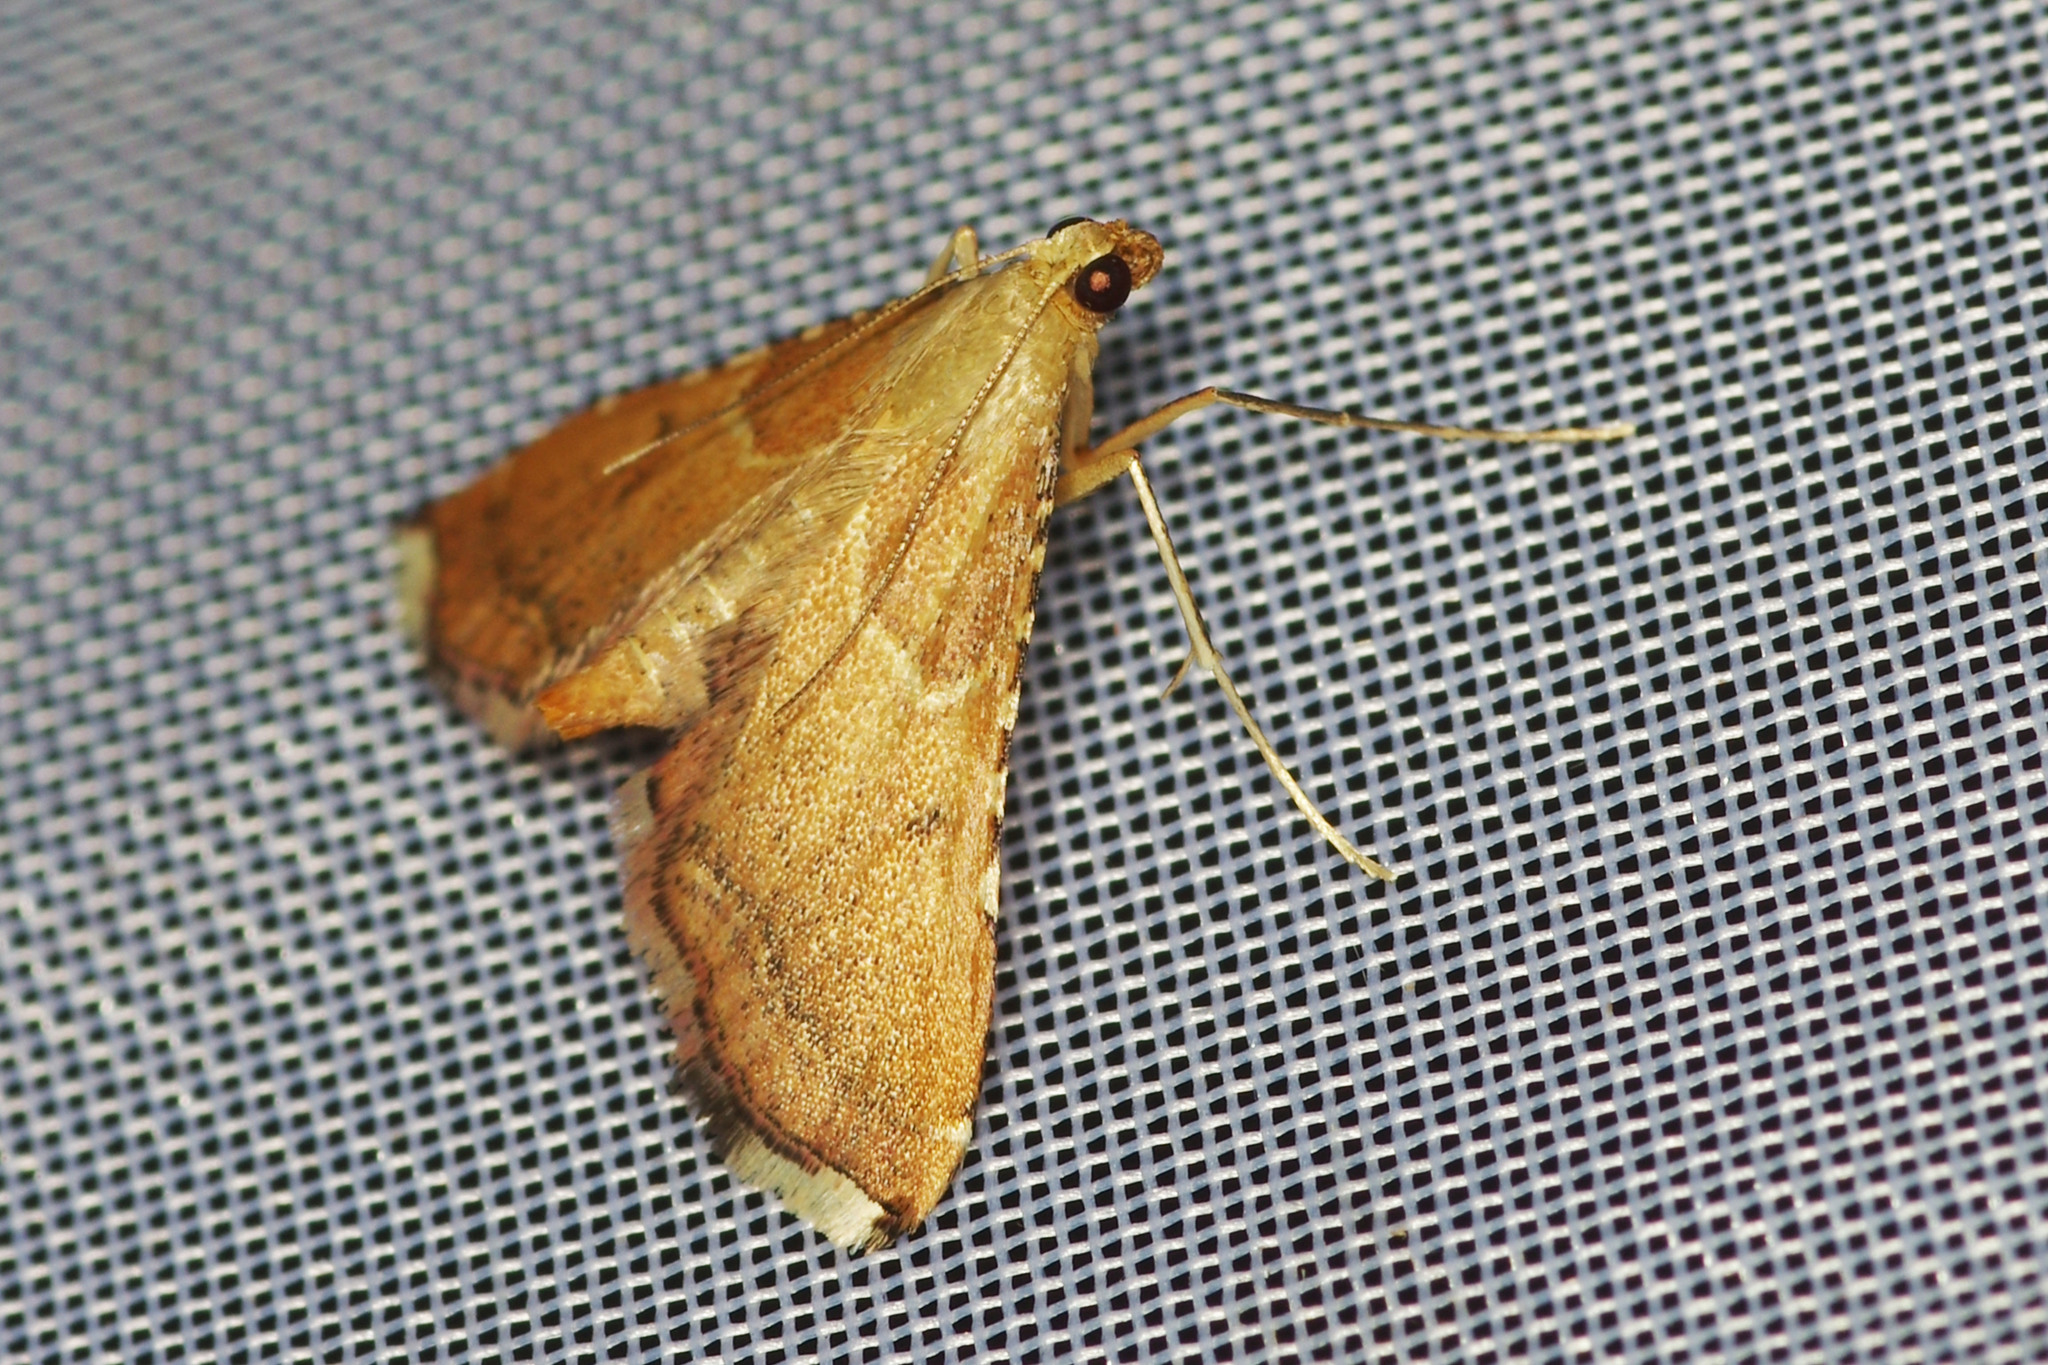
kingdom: Animalia
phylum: Arthropoda
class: Insecta
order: Lepidoptera
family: Pyralidae
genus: Endotricha
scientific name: Endotricha flammealis
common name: Rosy tabby
